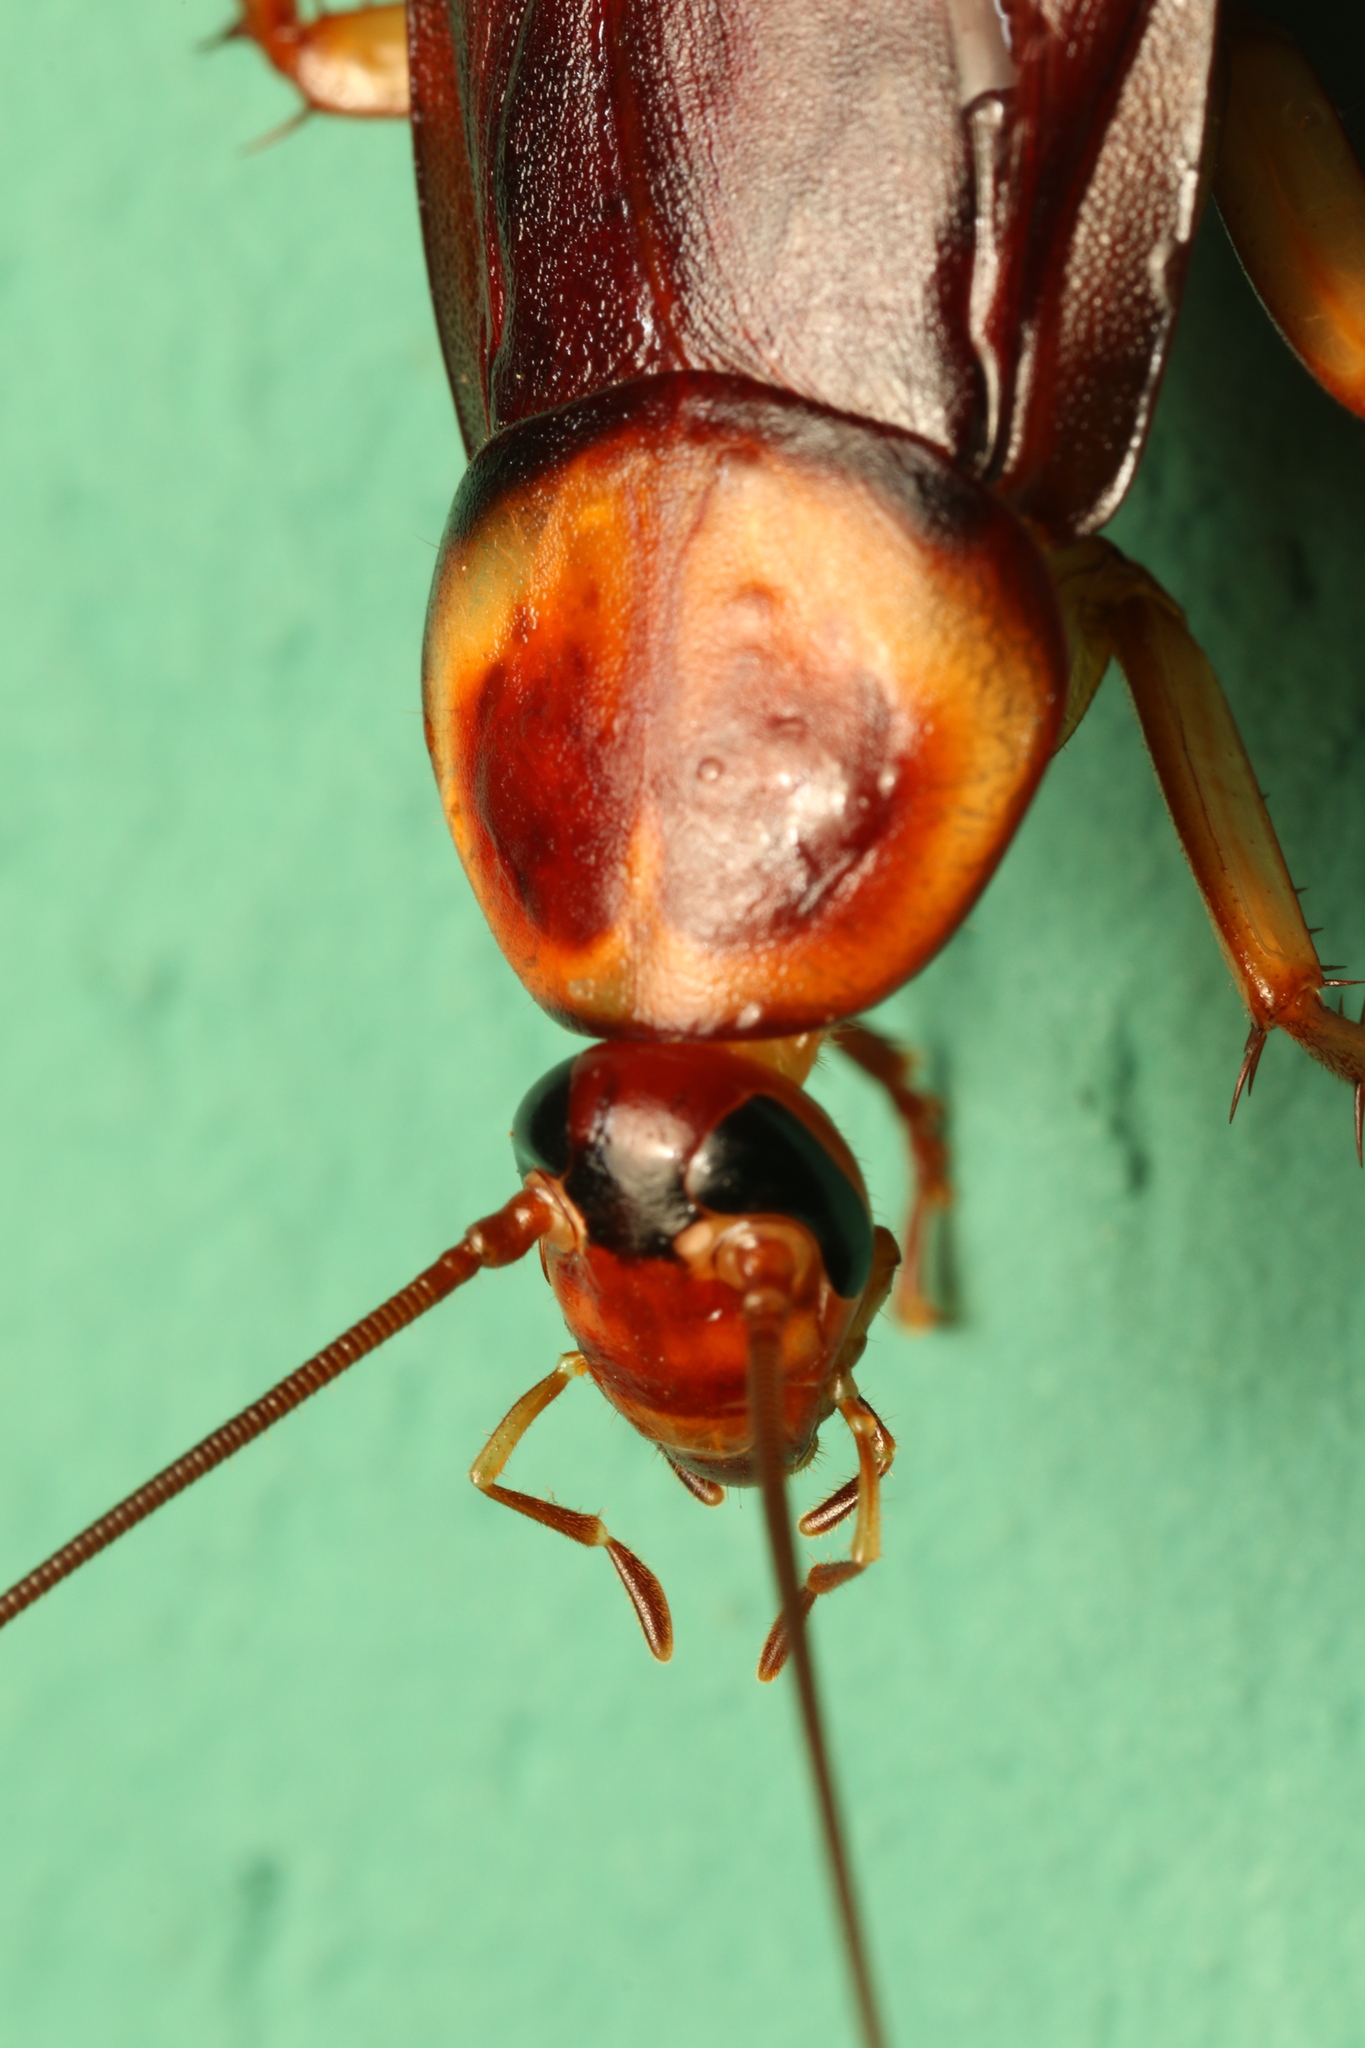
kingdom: Animalia
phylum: Arthropoda
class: Insecta
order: Blattodea
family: Blattidae
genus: Periplaneta
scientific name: Periplaneta americana
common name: American cockroach
